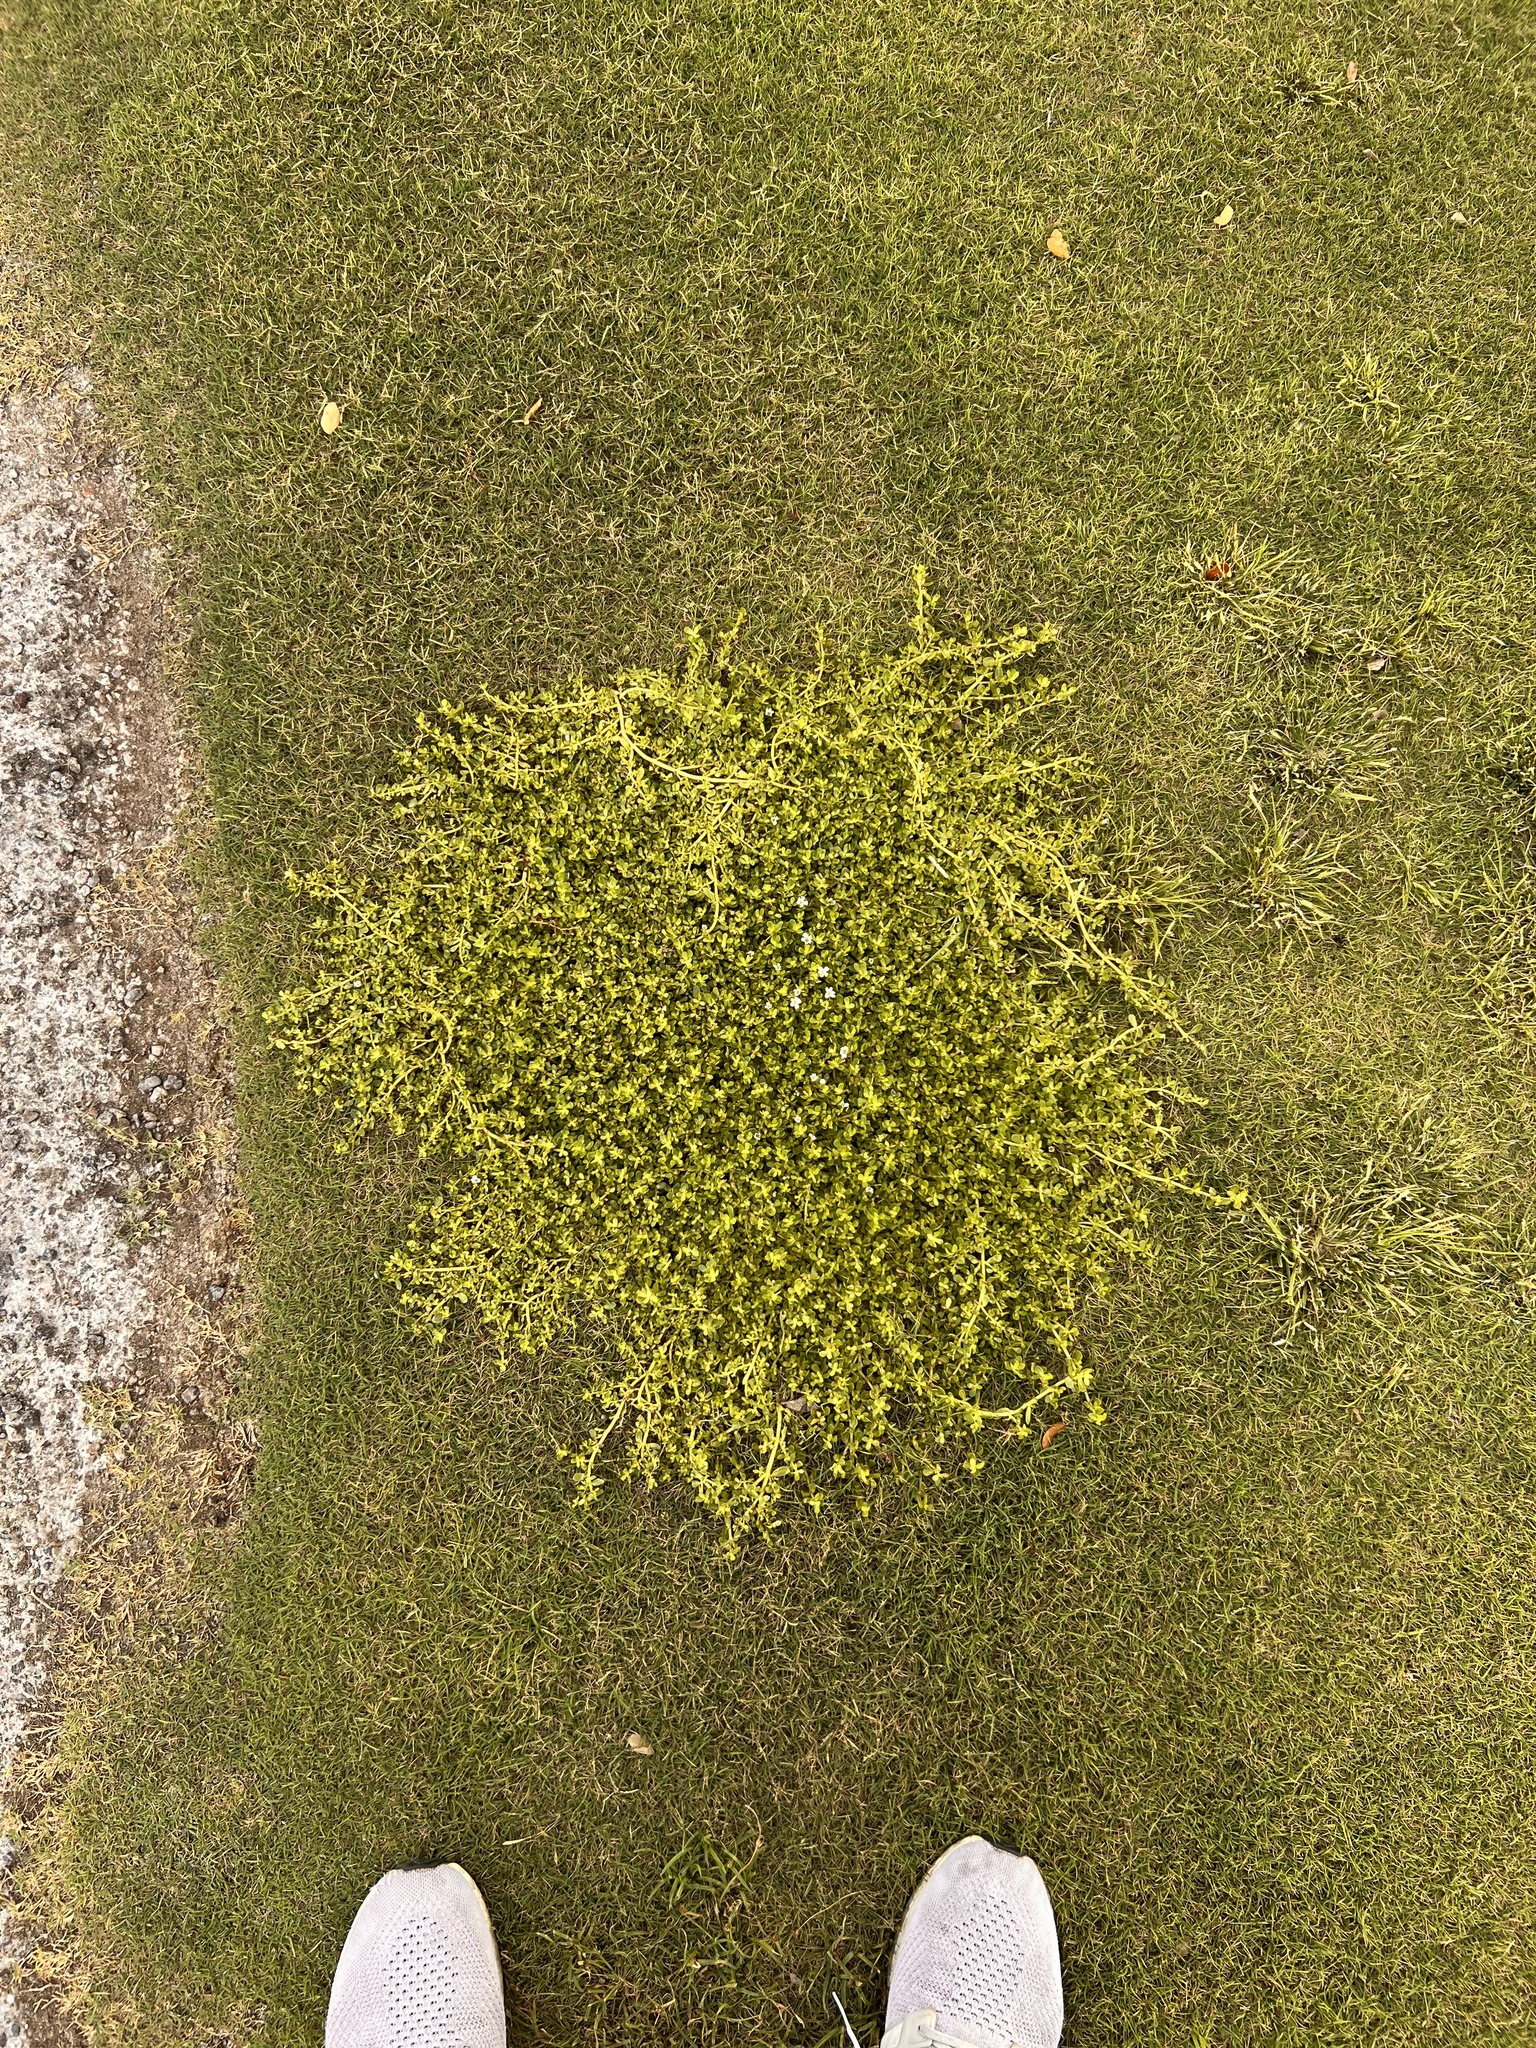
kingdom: Plantae
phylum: Tracheophyta
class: Magnoliopsida
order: Lamiales
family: Plantaginaceae
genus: Bacopa
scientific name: Bacopa monnieri
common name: Indian-pennywort
